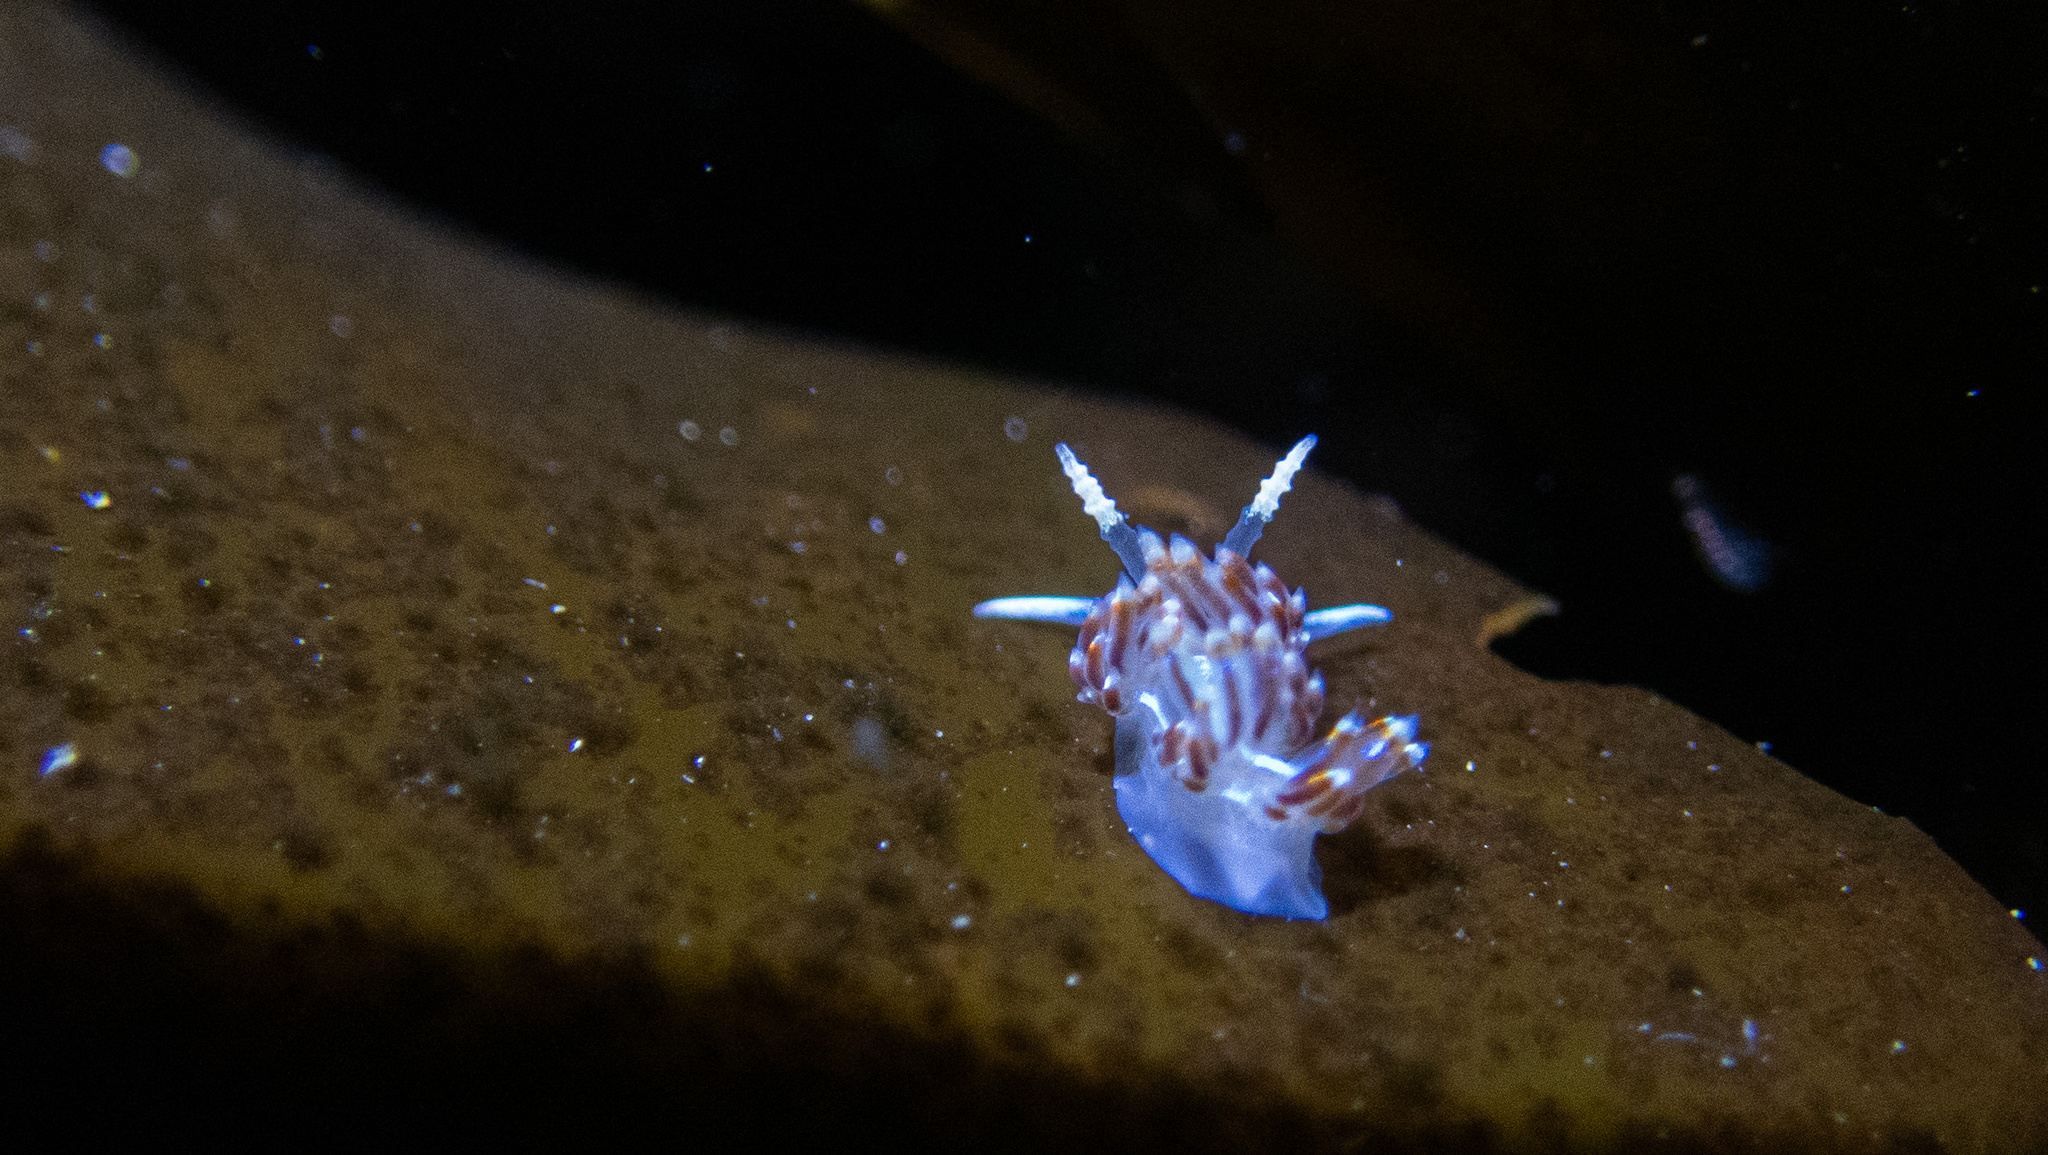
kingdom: Animalia
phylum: Mollusca
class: Gastropoda
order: Nudibranchia
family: Myrrhinidae
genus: Hermissenda
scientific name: Hermissenda opalescens
